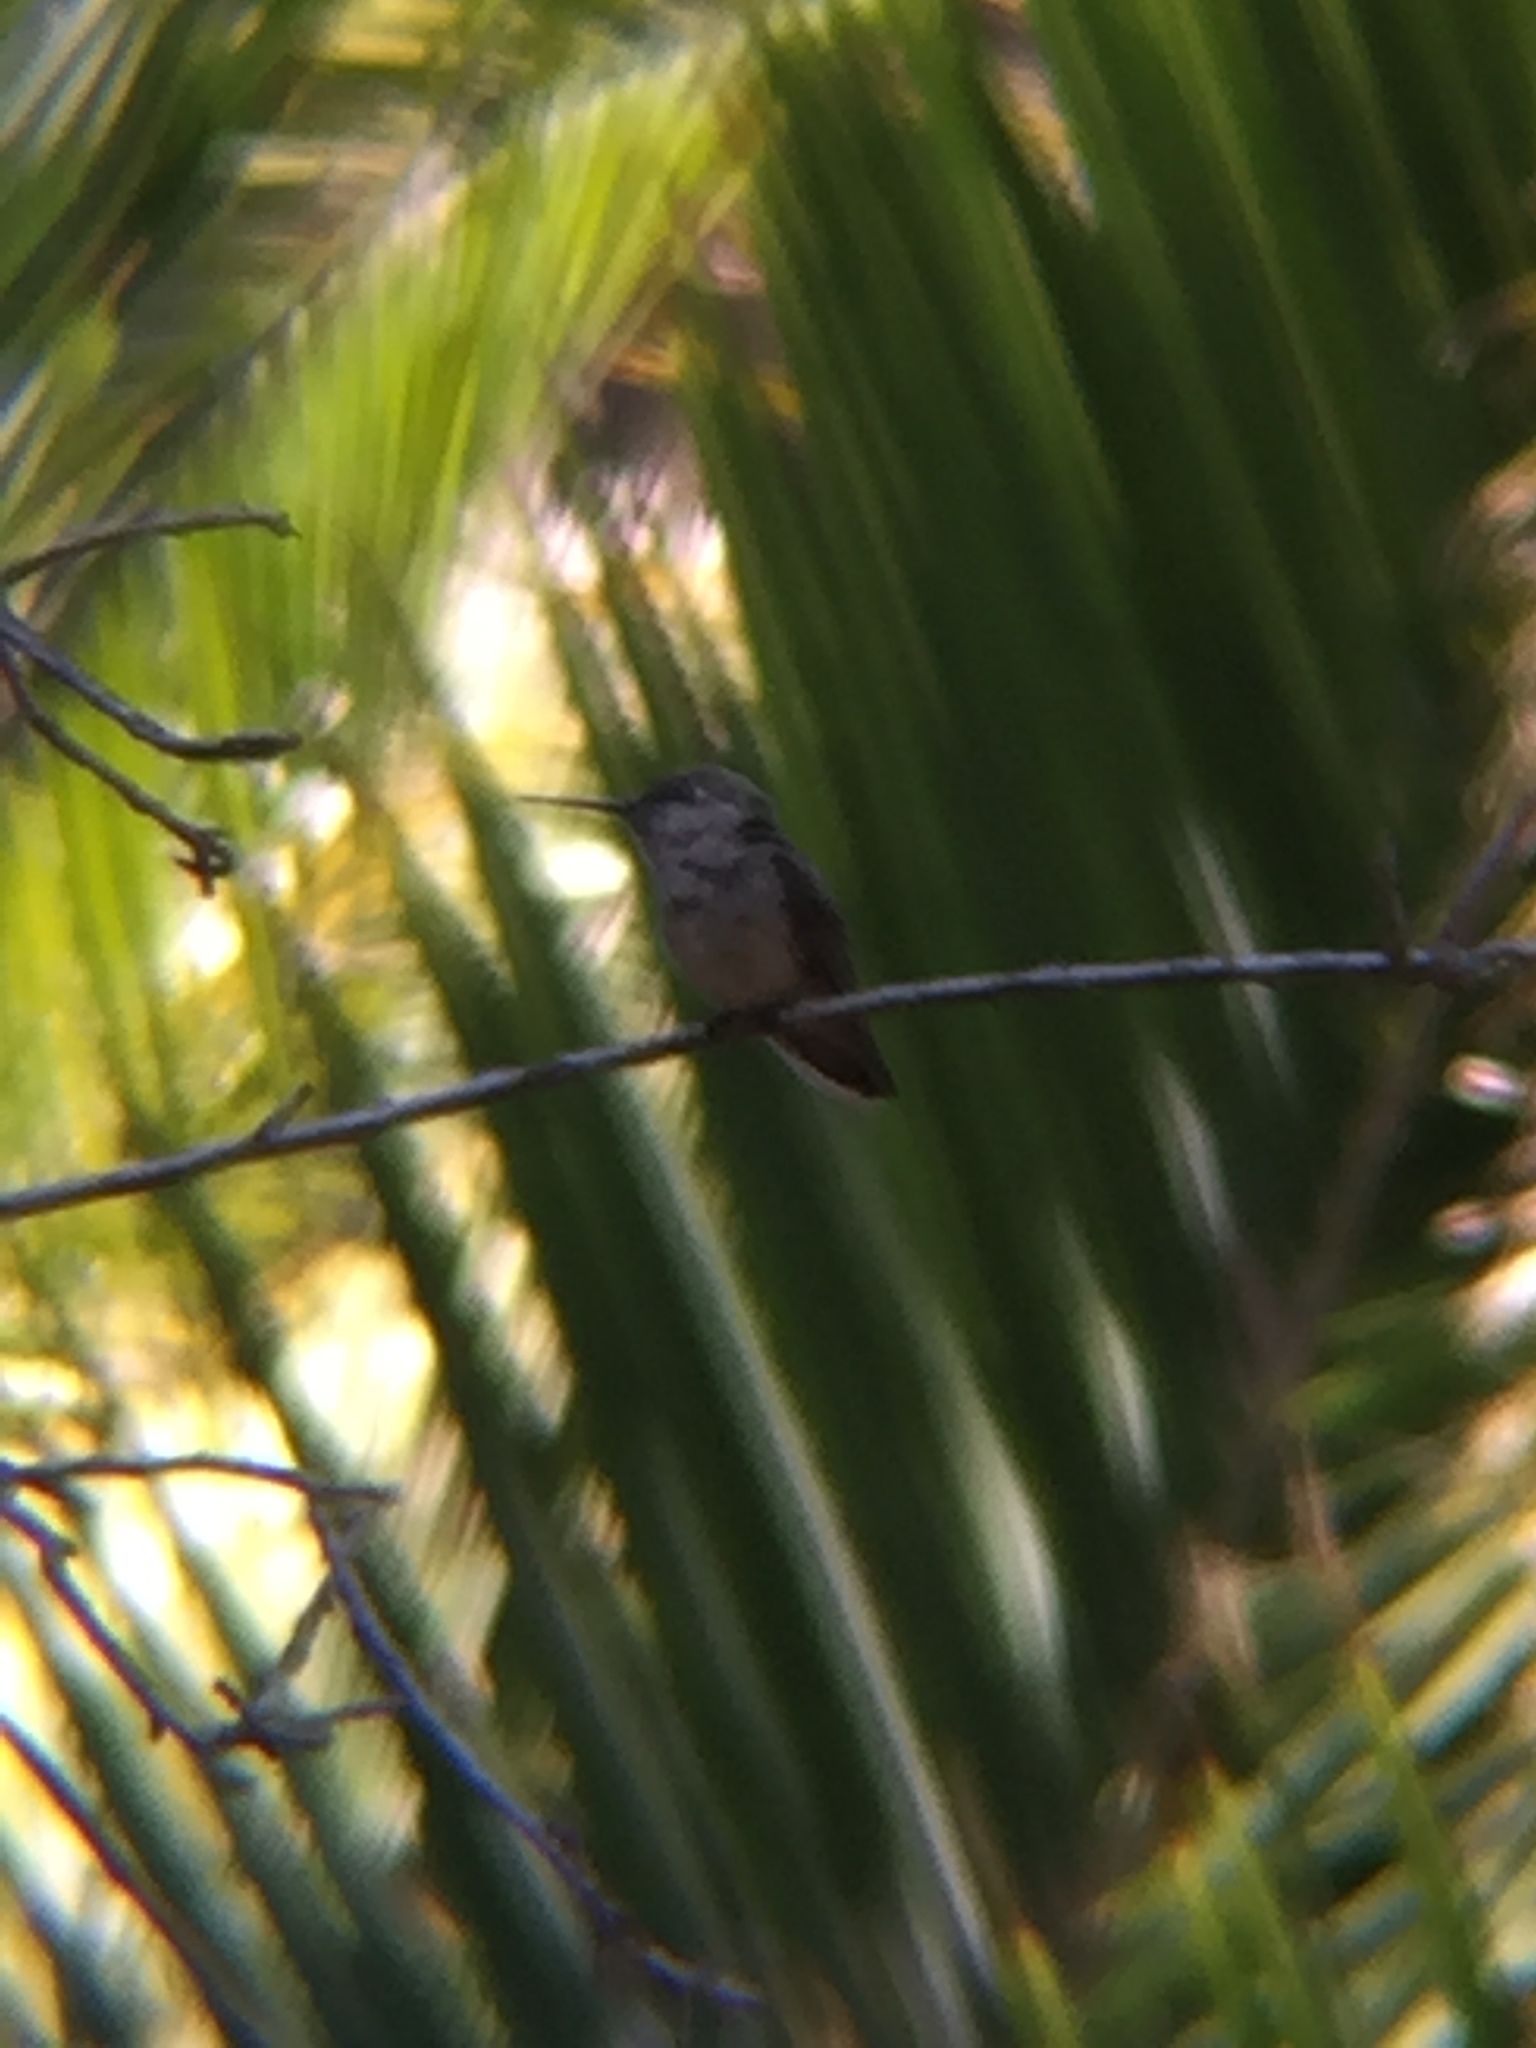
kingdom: Animalia
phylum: Chordata
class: Aves
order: Apodiformes
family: Trochilidae
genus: Selasphorus
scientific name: Selasphorus
